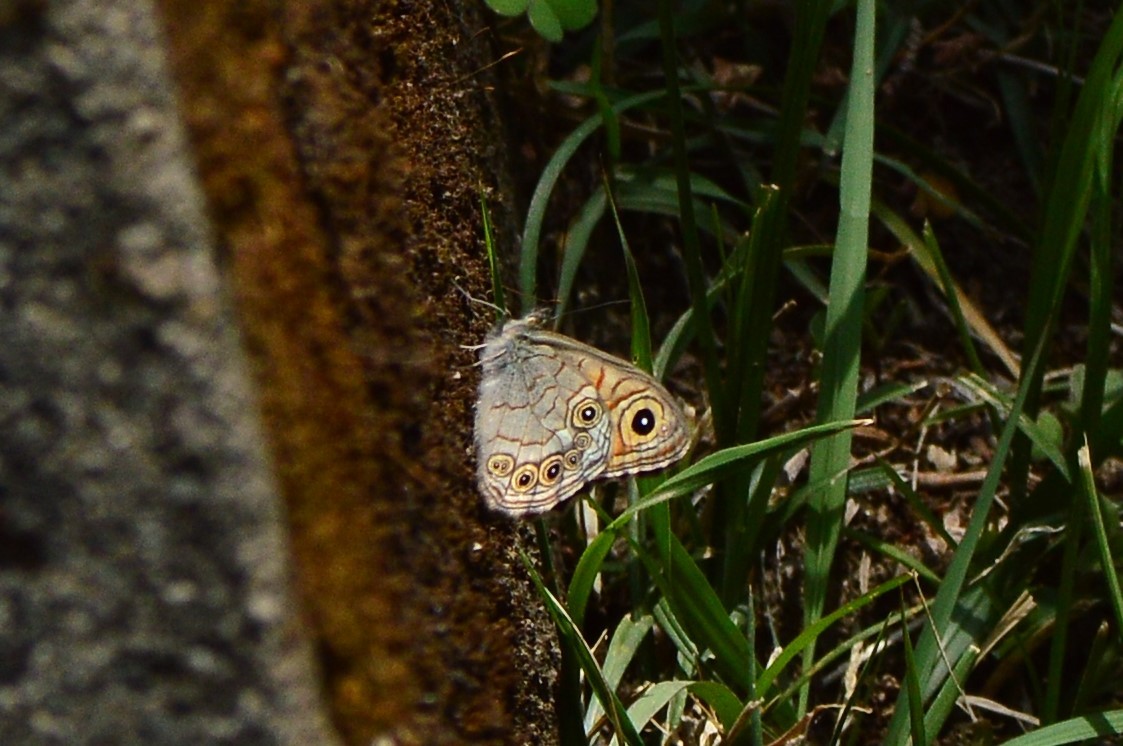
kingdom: Animalia
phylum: Arthropoda
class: Insecta
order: Lepidoptera
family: Nymphalidae
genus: Pararge
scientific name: Pararge Lasiommata schakra
